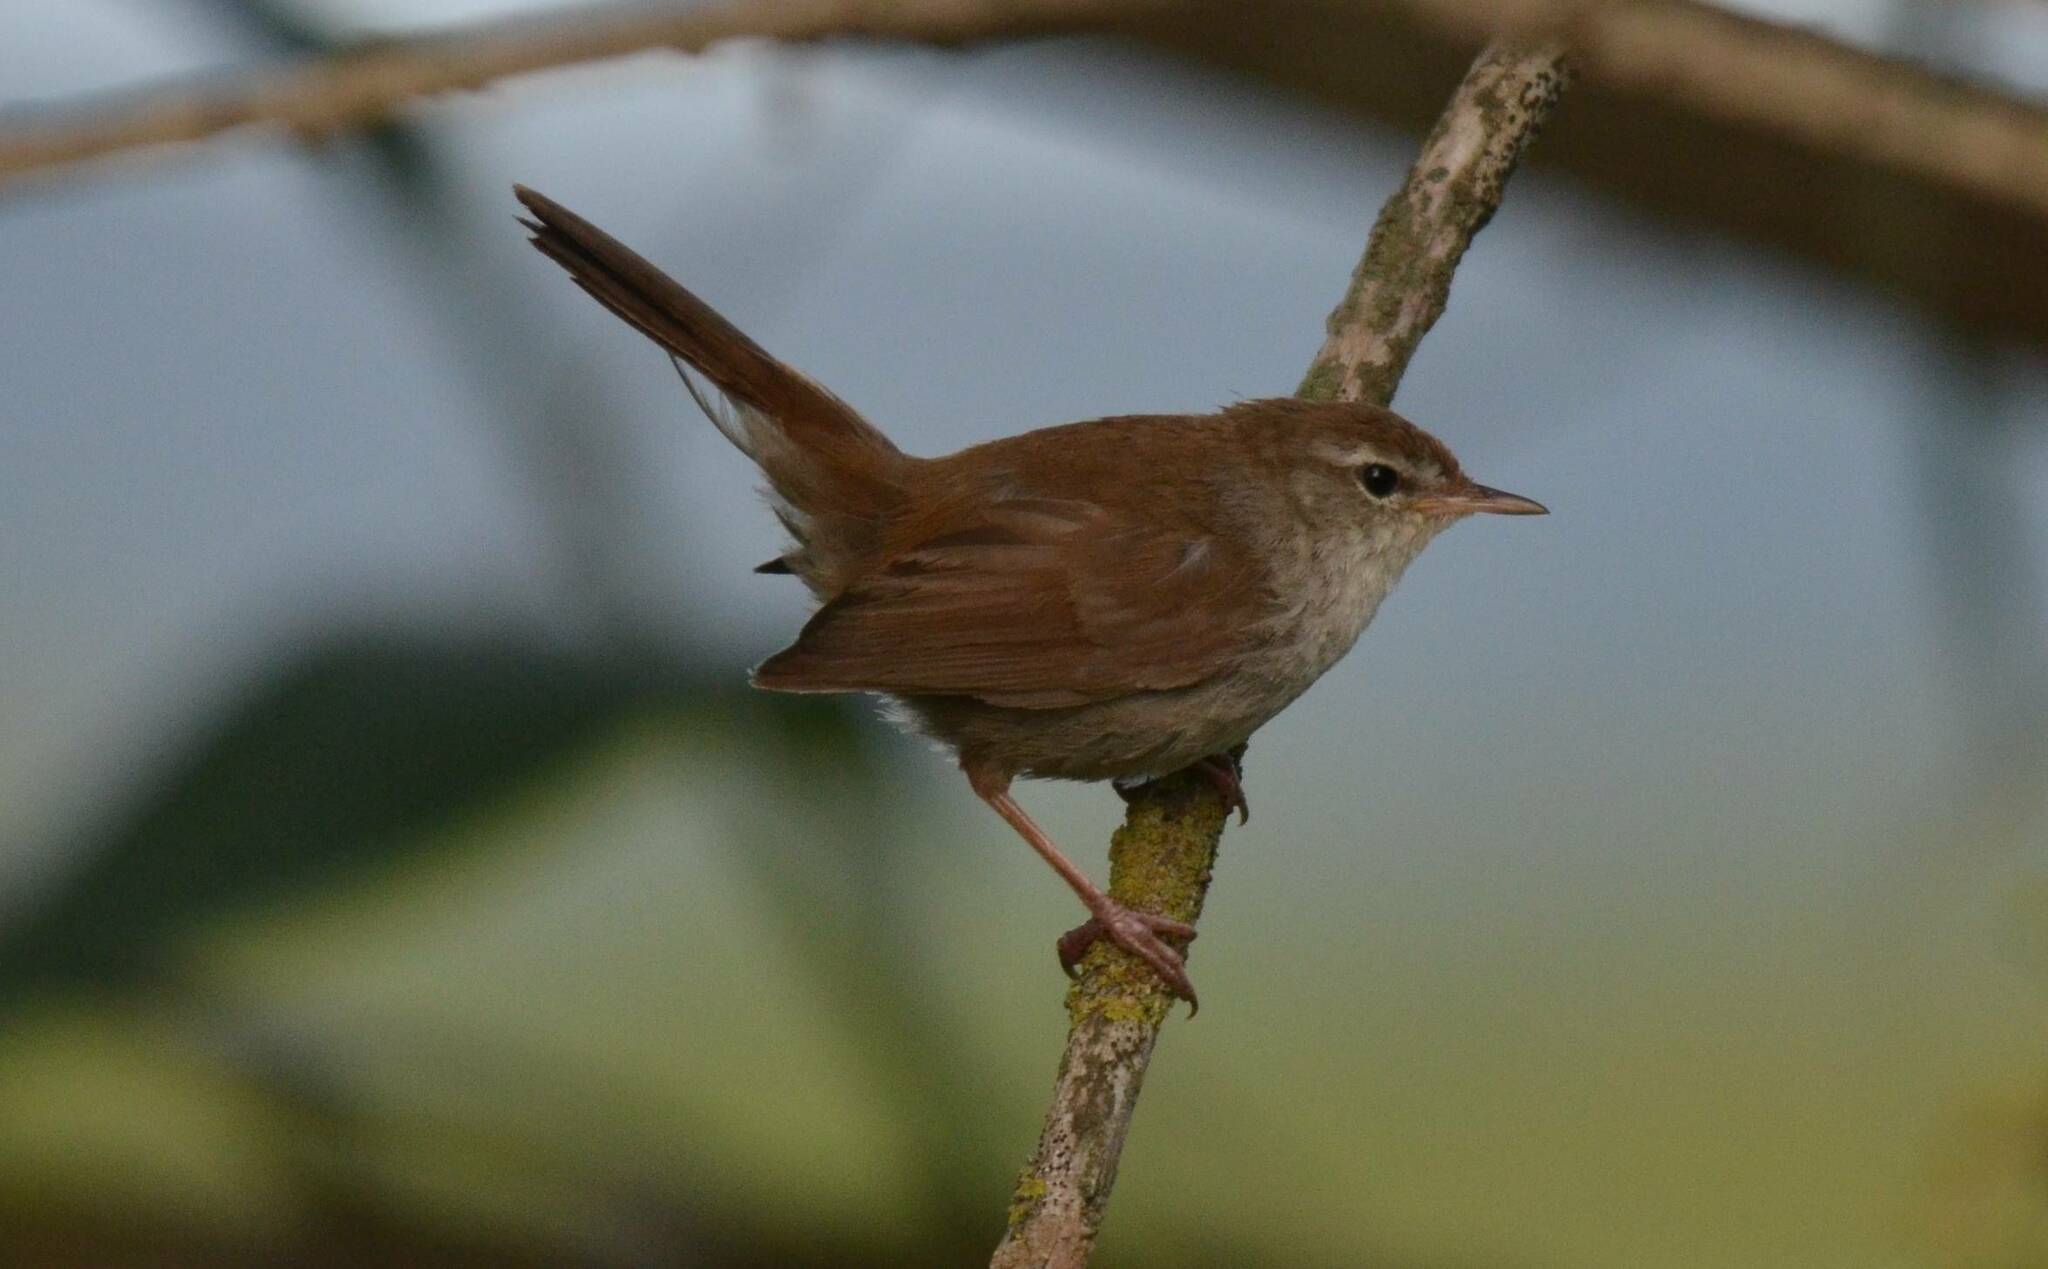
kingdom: Animalia
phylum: Chordata
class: Aves
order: Passeriformes
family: Cettiidae
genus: Cettia
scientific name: Cettia cetti
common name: Cetti's warbler
